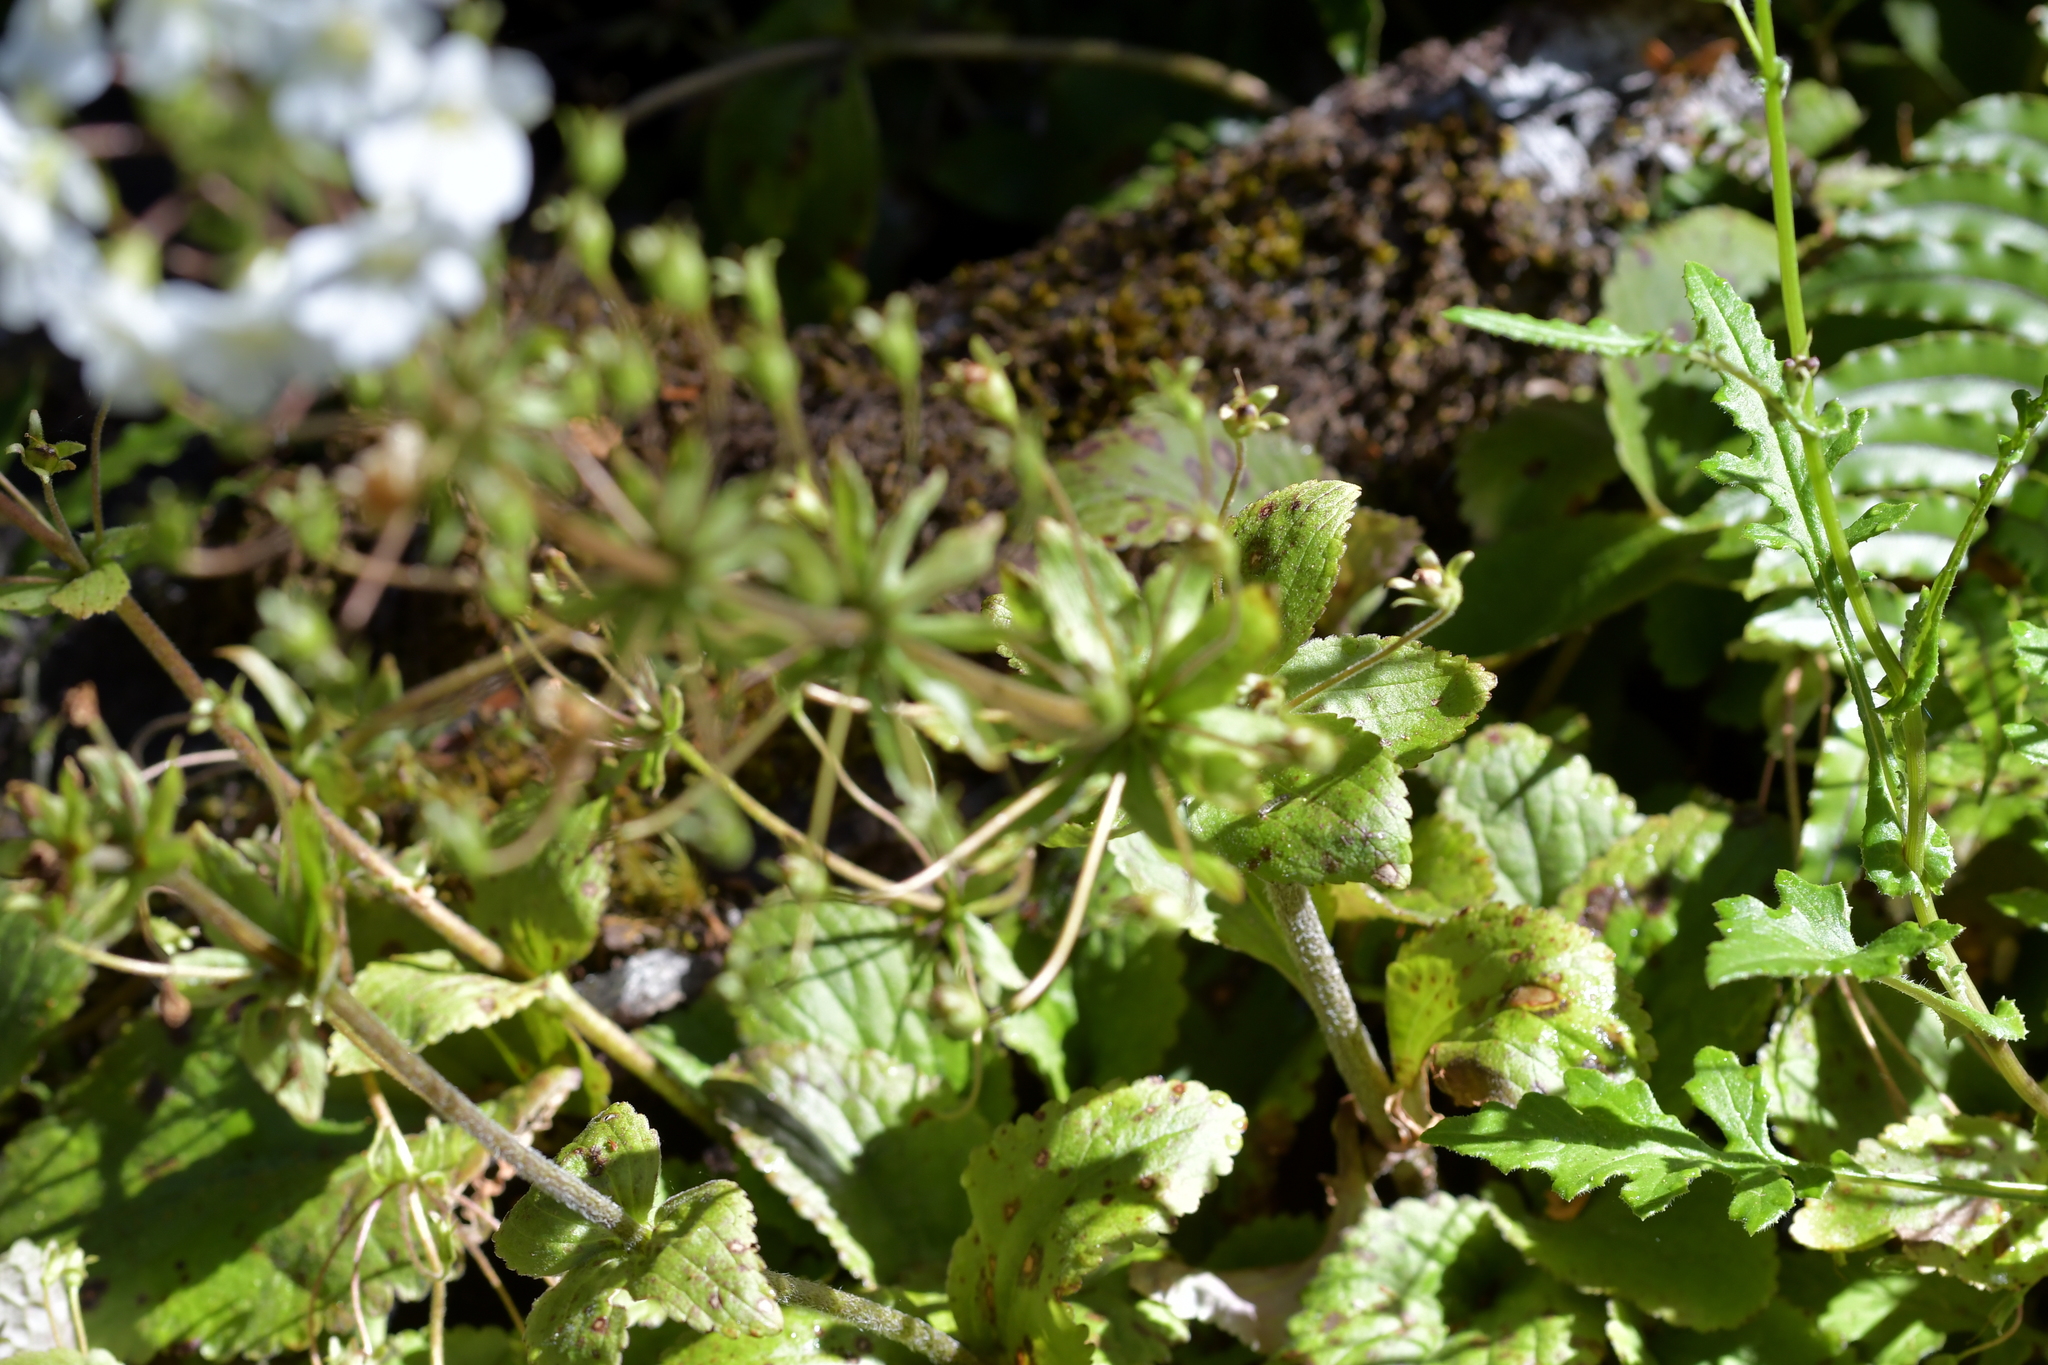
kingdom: Plantae
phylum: Tracheophyta
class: Magnoliopsida
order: Lamiales
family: Plantaginaceae
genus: Ourisia
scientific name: Ourisia macrophylla
